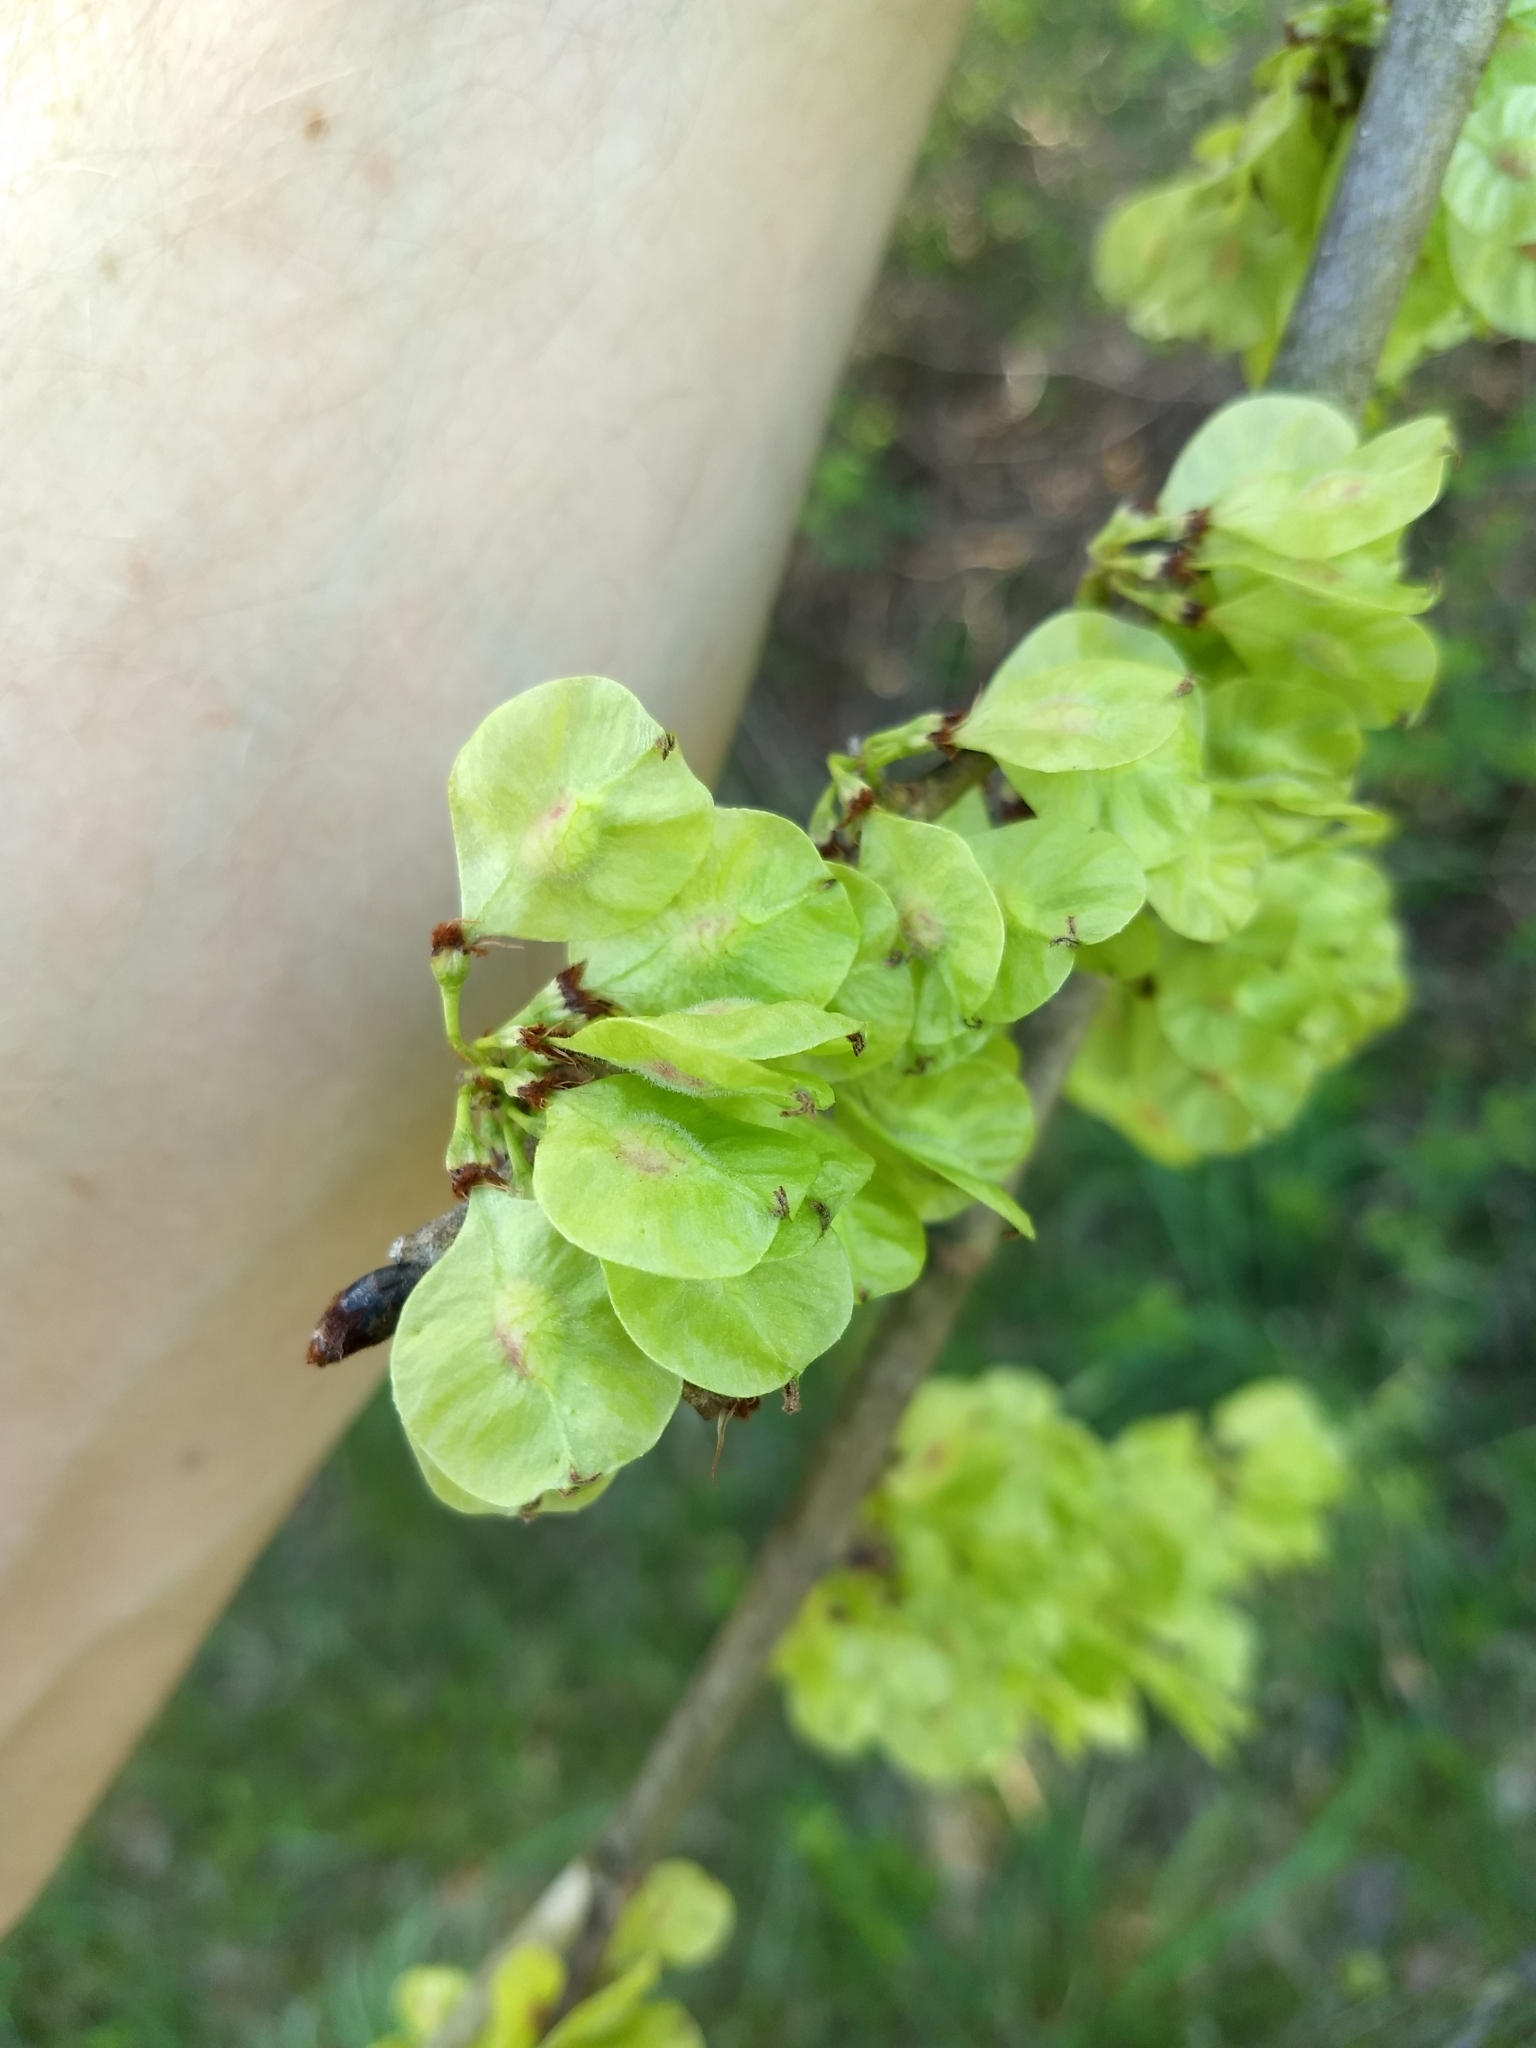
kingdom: Plantae
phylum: Tracheophyta
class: Magnoliopsida
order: Rosales
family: Ulmaceae
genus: Ulmus
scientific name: Ulmus rubra
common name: Slippery elm
